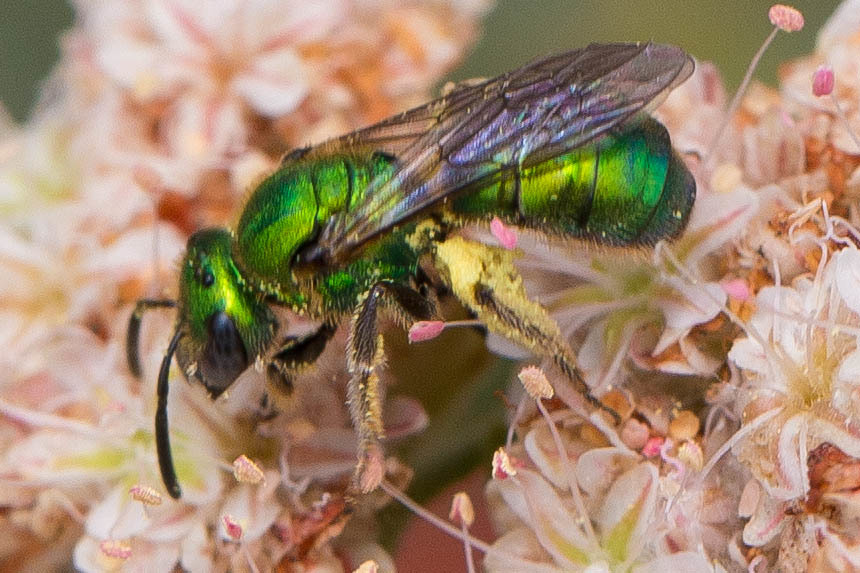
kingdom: Animalia
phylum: Arthropoda
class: Insecta
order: Hymenoptera
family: Halictidae
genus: Augochlorella
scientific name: Augochlorella pomoniella
